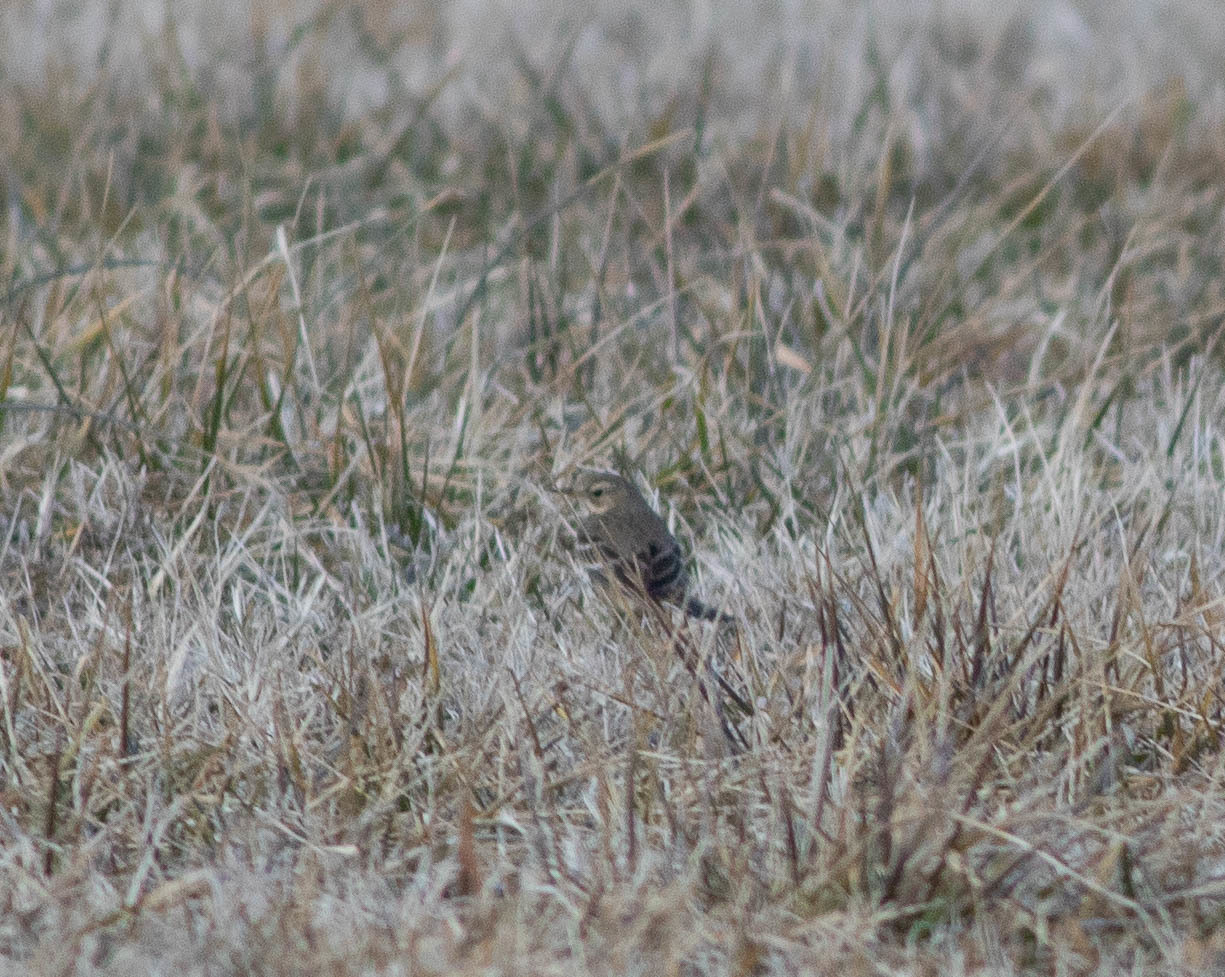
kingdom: Animalia
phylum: Chordata
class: Aves
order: Passeriformes
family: Motacillidae
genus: Anthus
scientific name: Anthus rubescens
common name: Buff-bellied pipit
